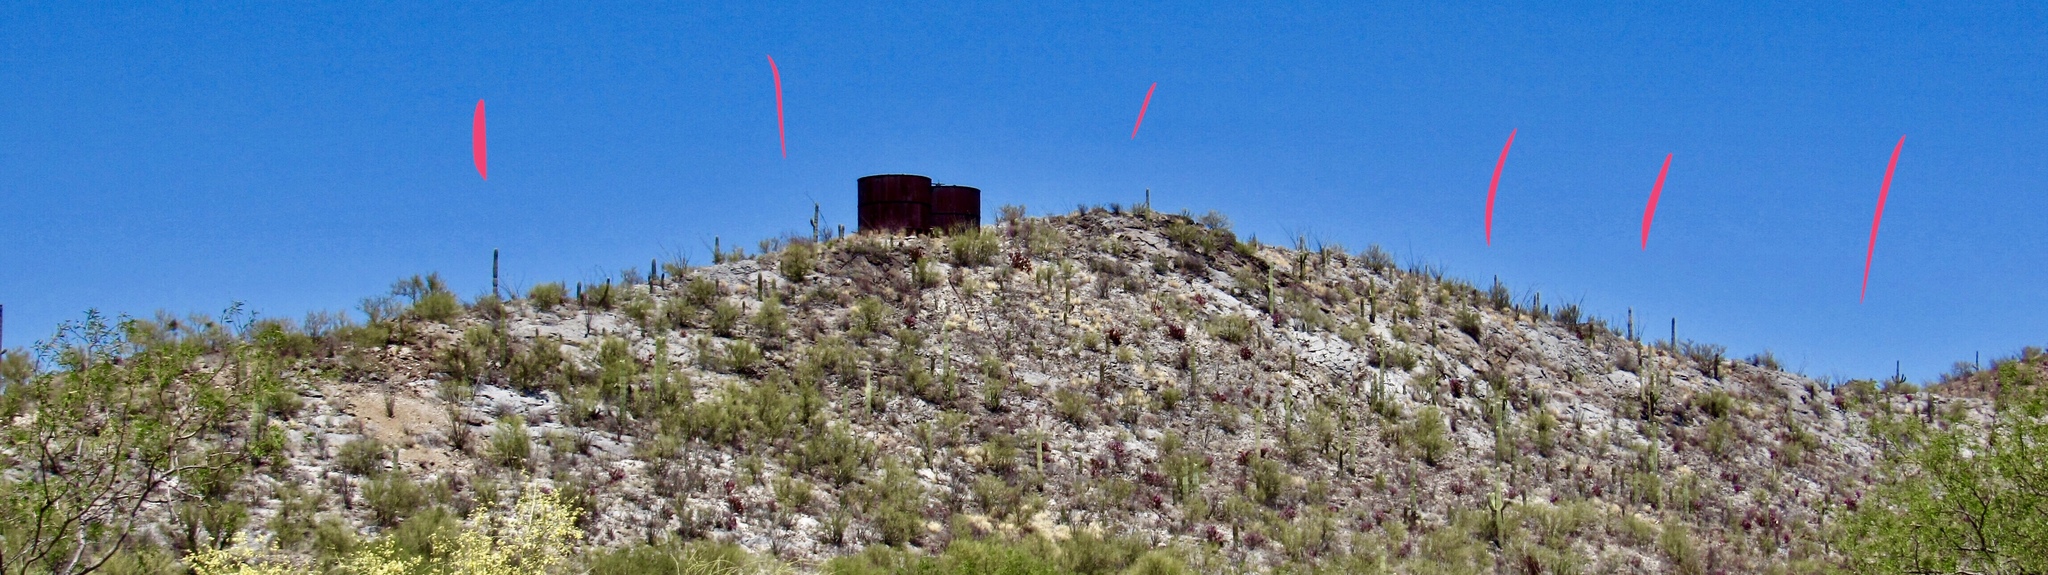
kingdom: Plantae
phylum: Tracheophyta
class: Magnoliopsida
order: Caryophyllales
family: Cactaceae
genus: Carnegiea
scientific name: Carnegiea gigantea
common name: Saguaro
